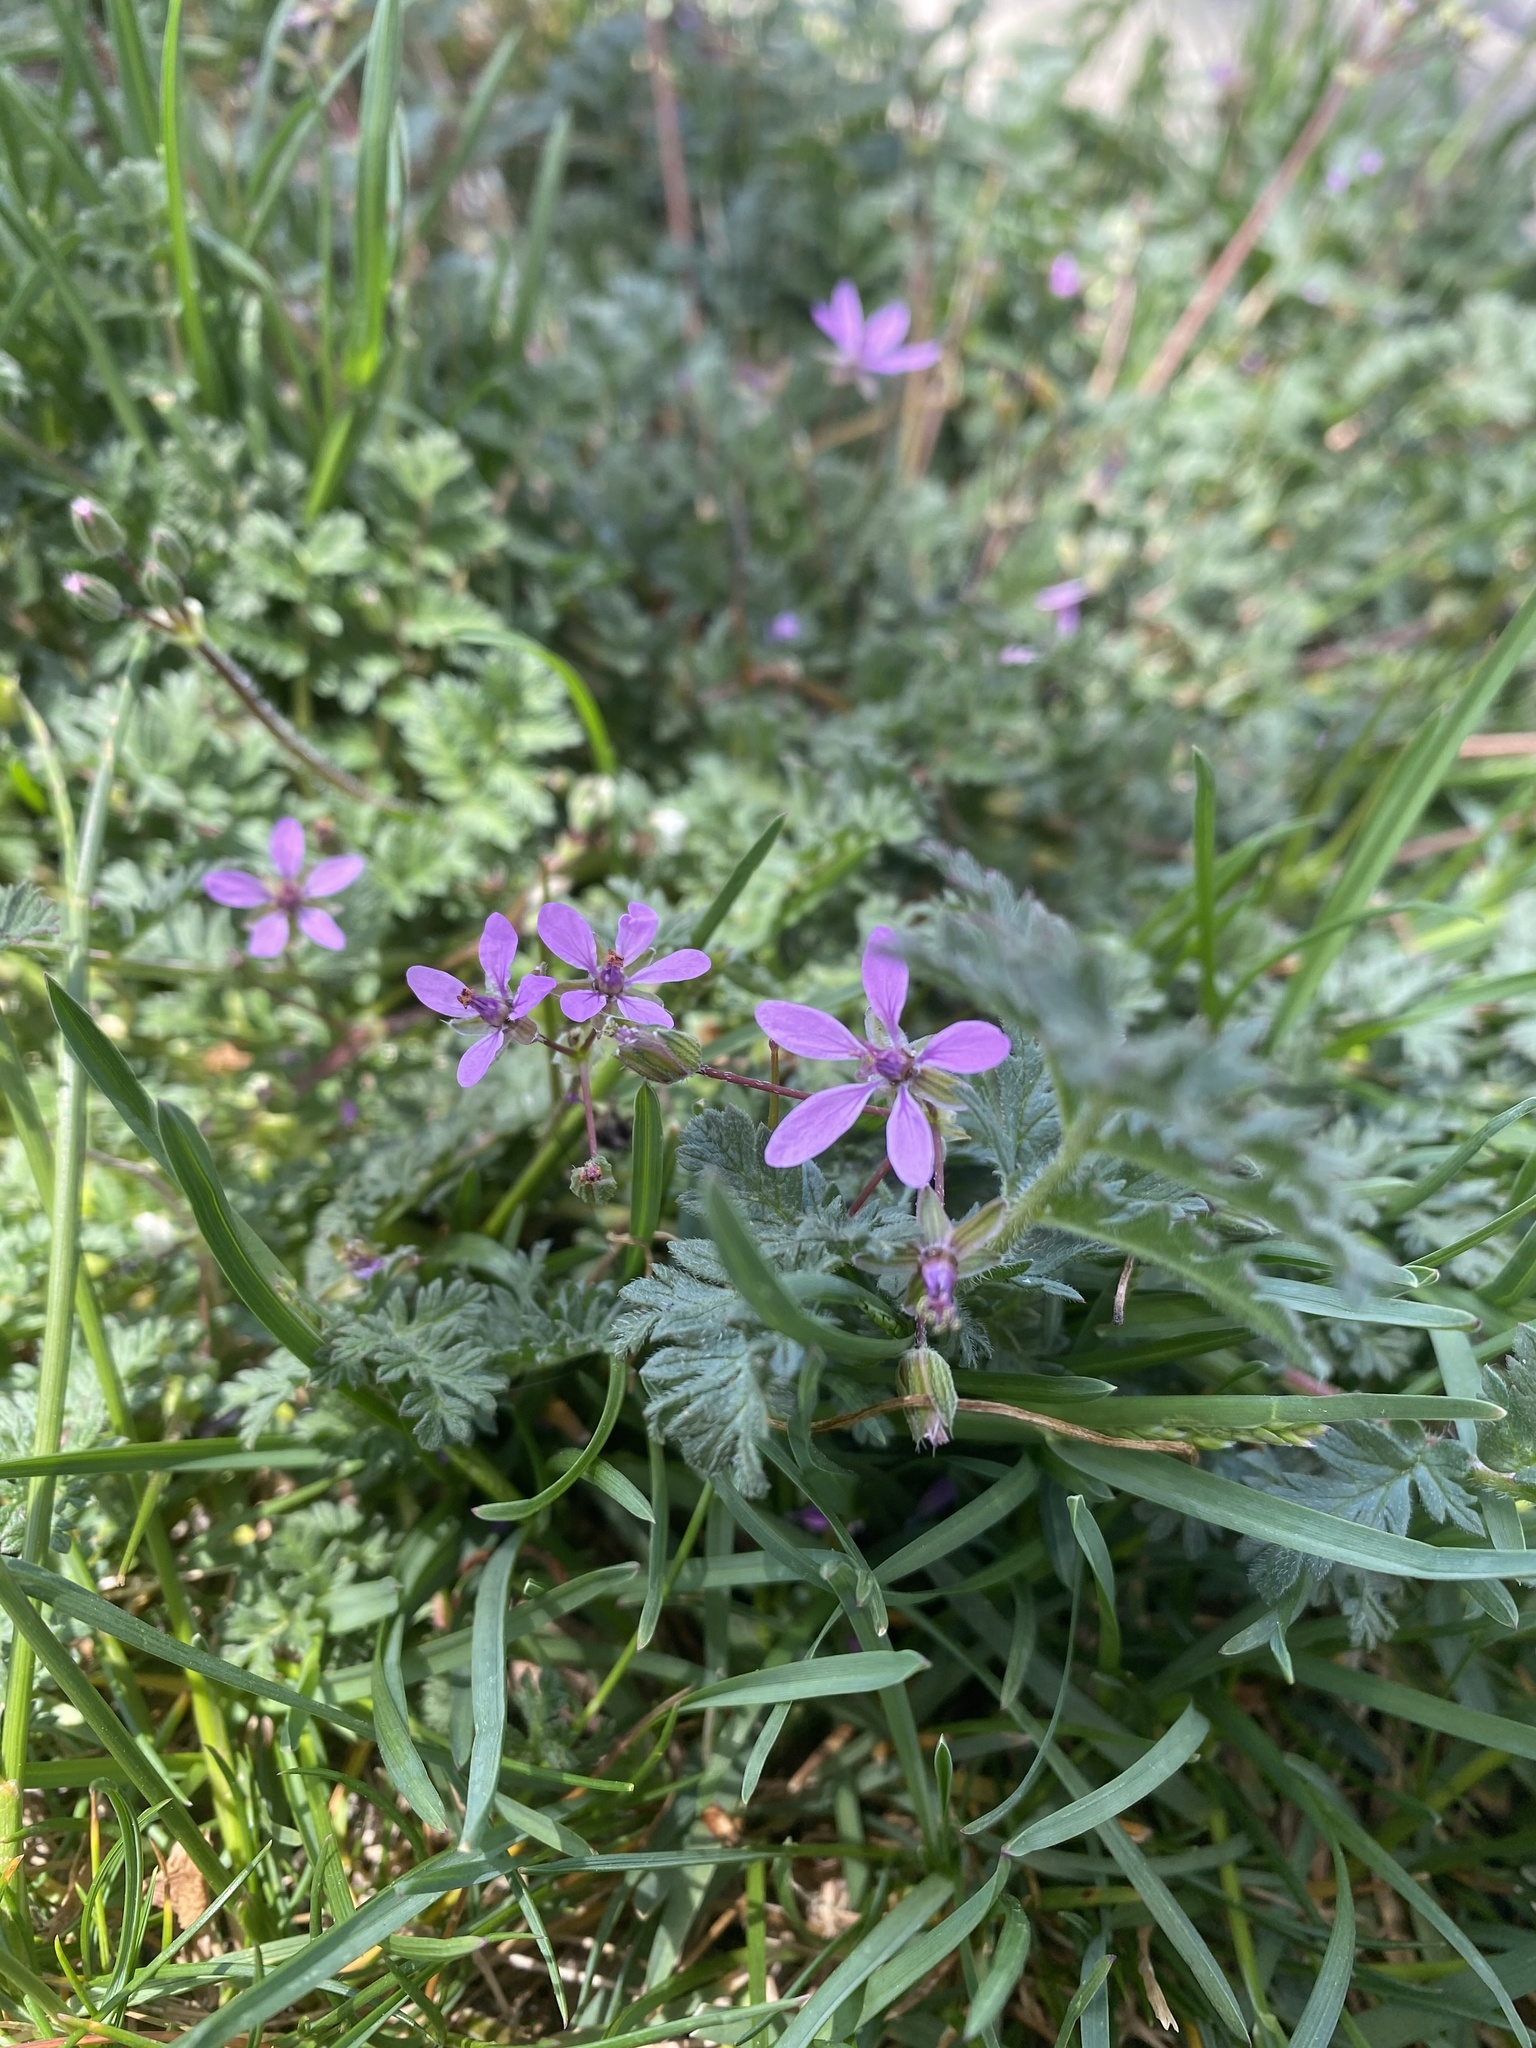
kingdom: Plantae
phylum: Tracheophyta
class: Magnoliopsida
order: Geraniales
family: Geraniaceae
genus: Erodium
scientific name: Erodium cicutarium
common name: Common stork's-bill
